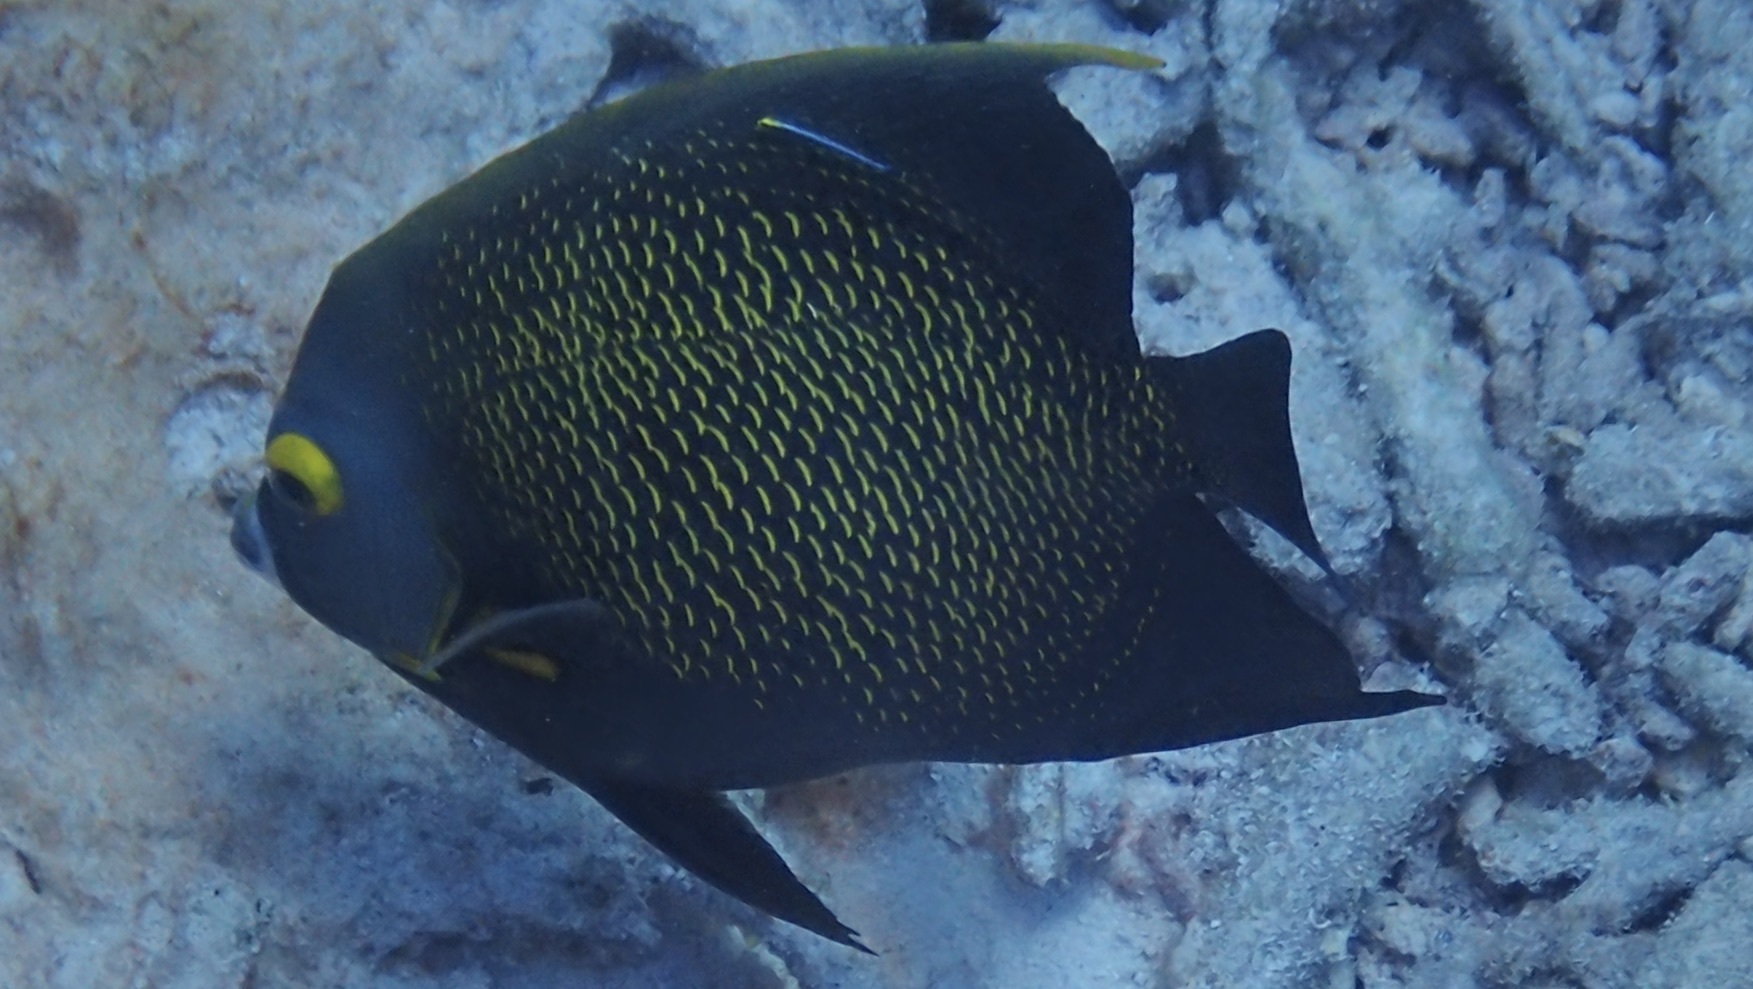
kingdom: Animalia
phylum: Chordata
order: Perciformes
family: Pomacanthidae
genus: Pomacanthus
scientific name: Pomacanthus paru
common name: French angelfish
